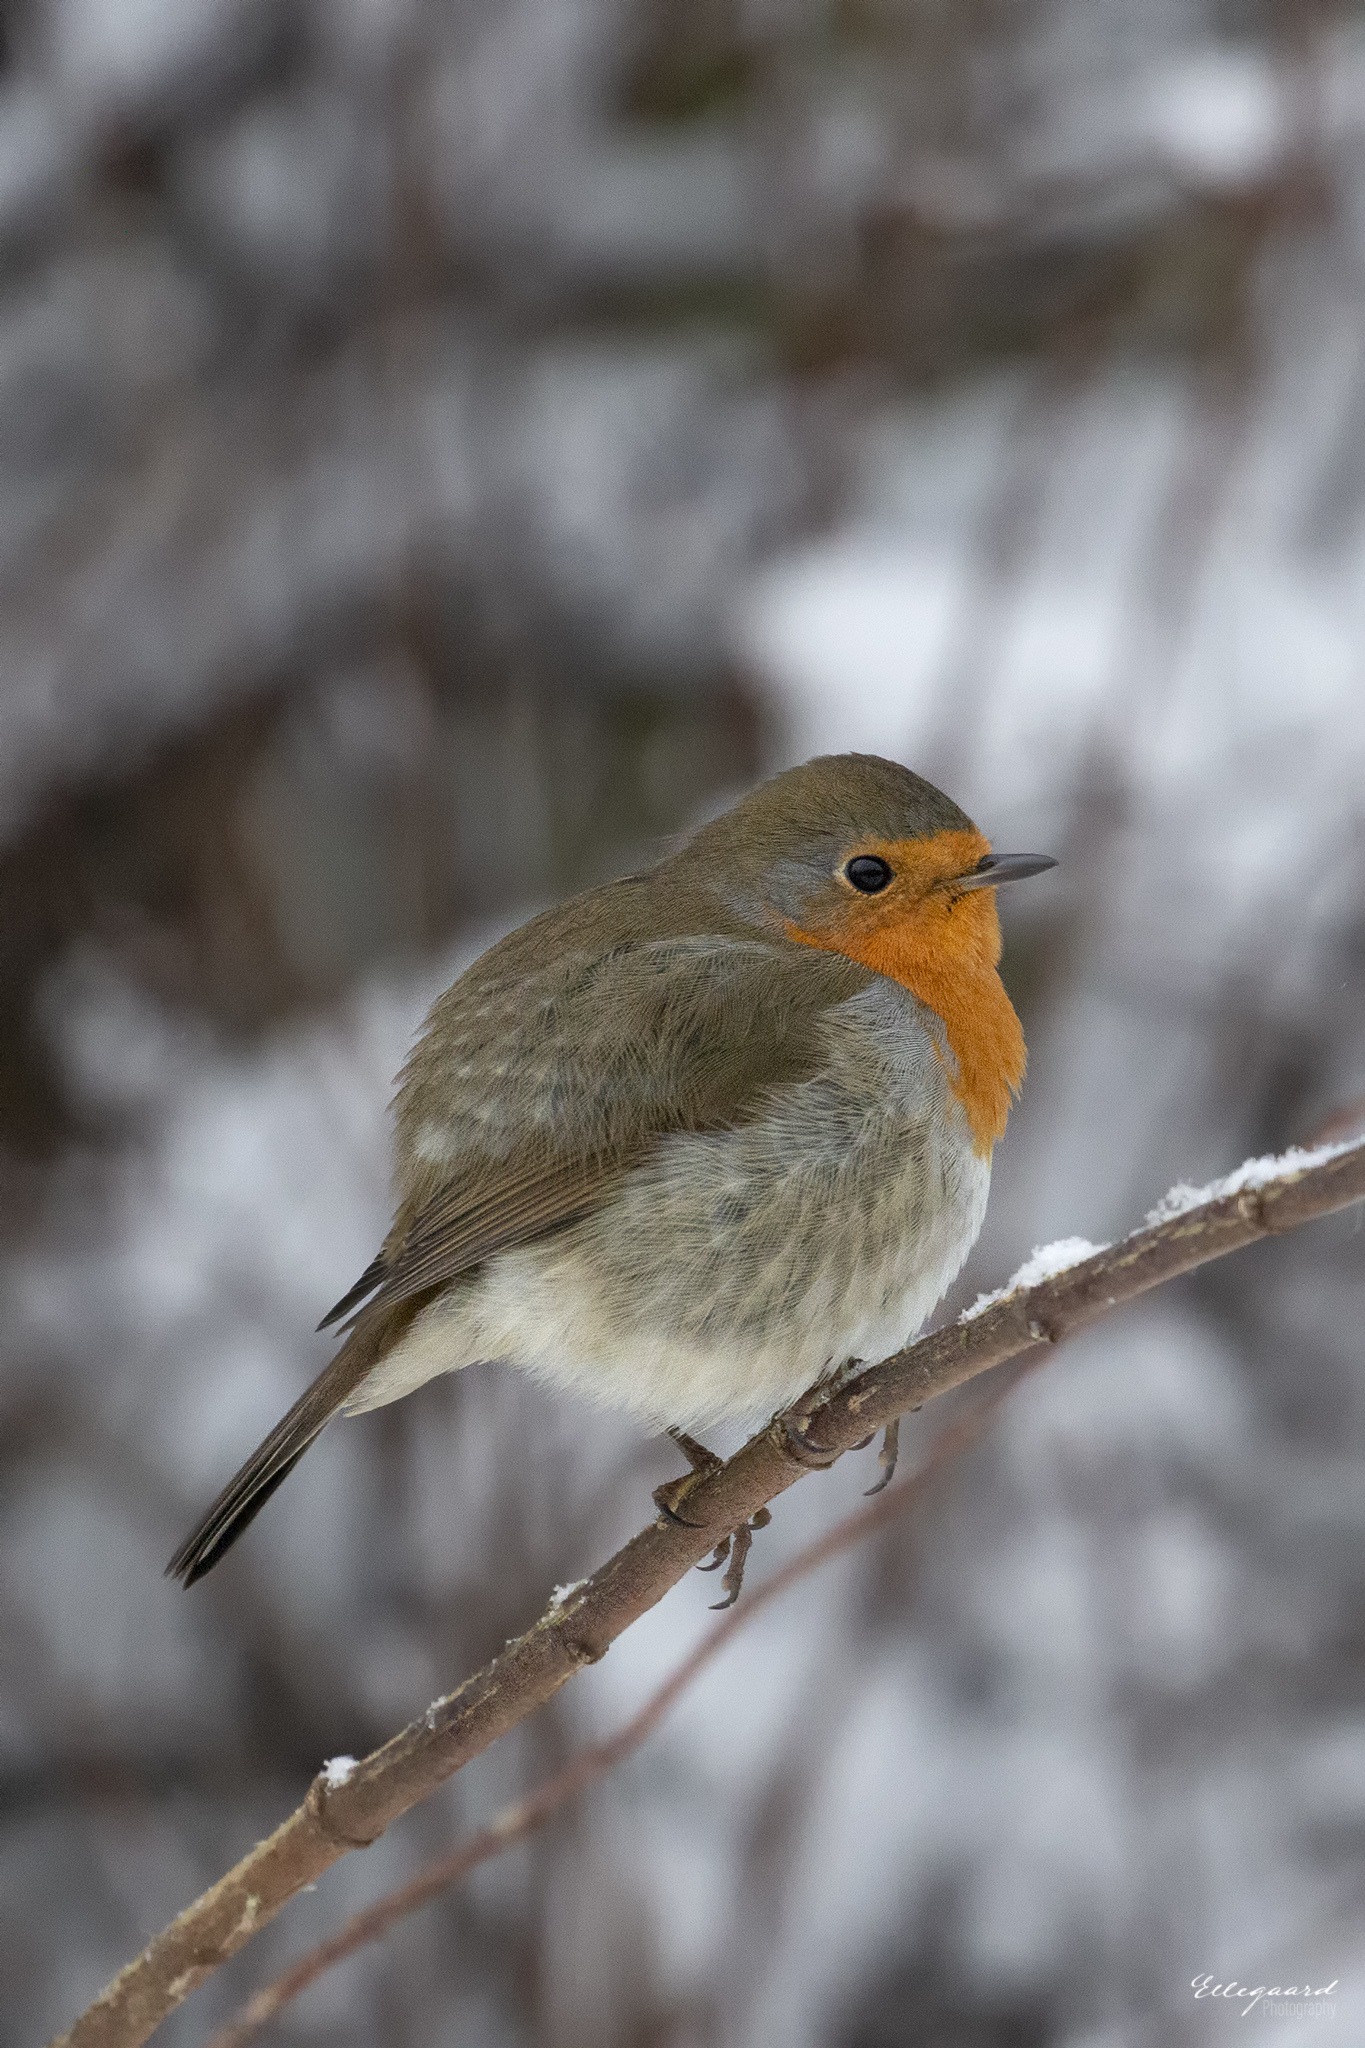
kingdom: Animalia
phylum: Chordata
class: Aves
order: Passeriformes
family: Muscicapidae
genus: Erithacus
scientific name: Erithacus rubecula
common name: European robin
